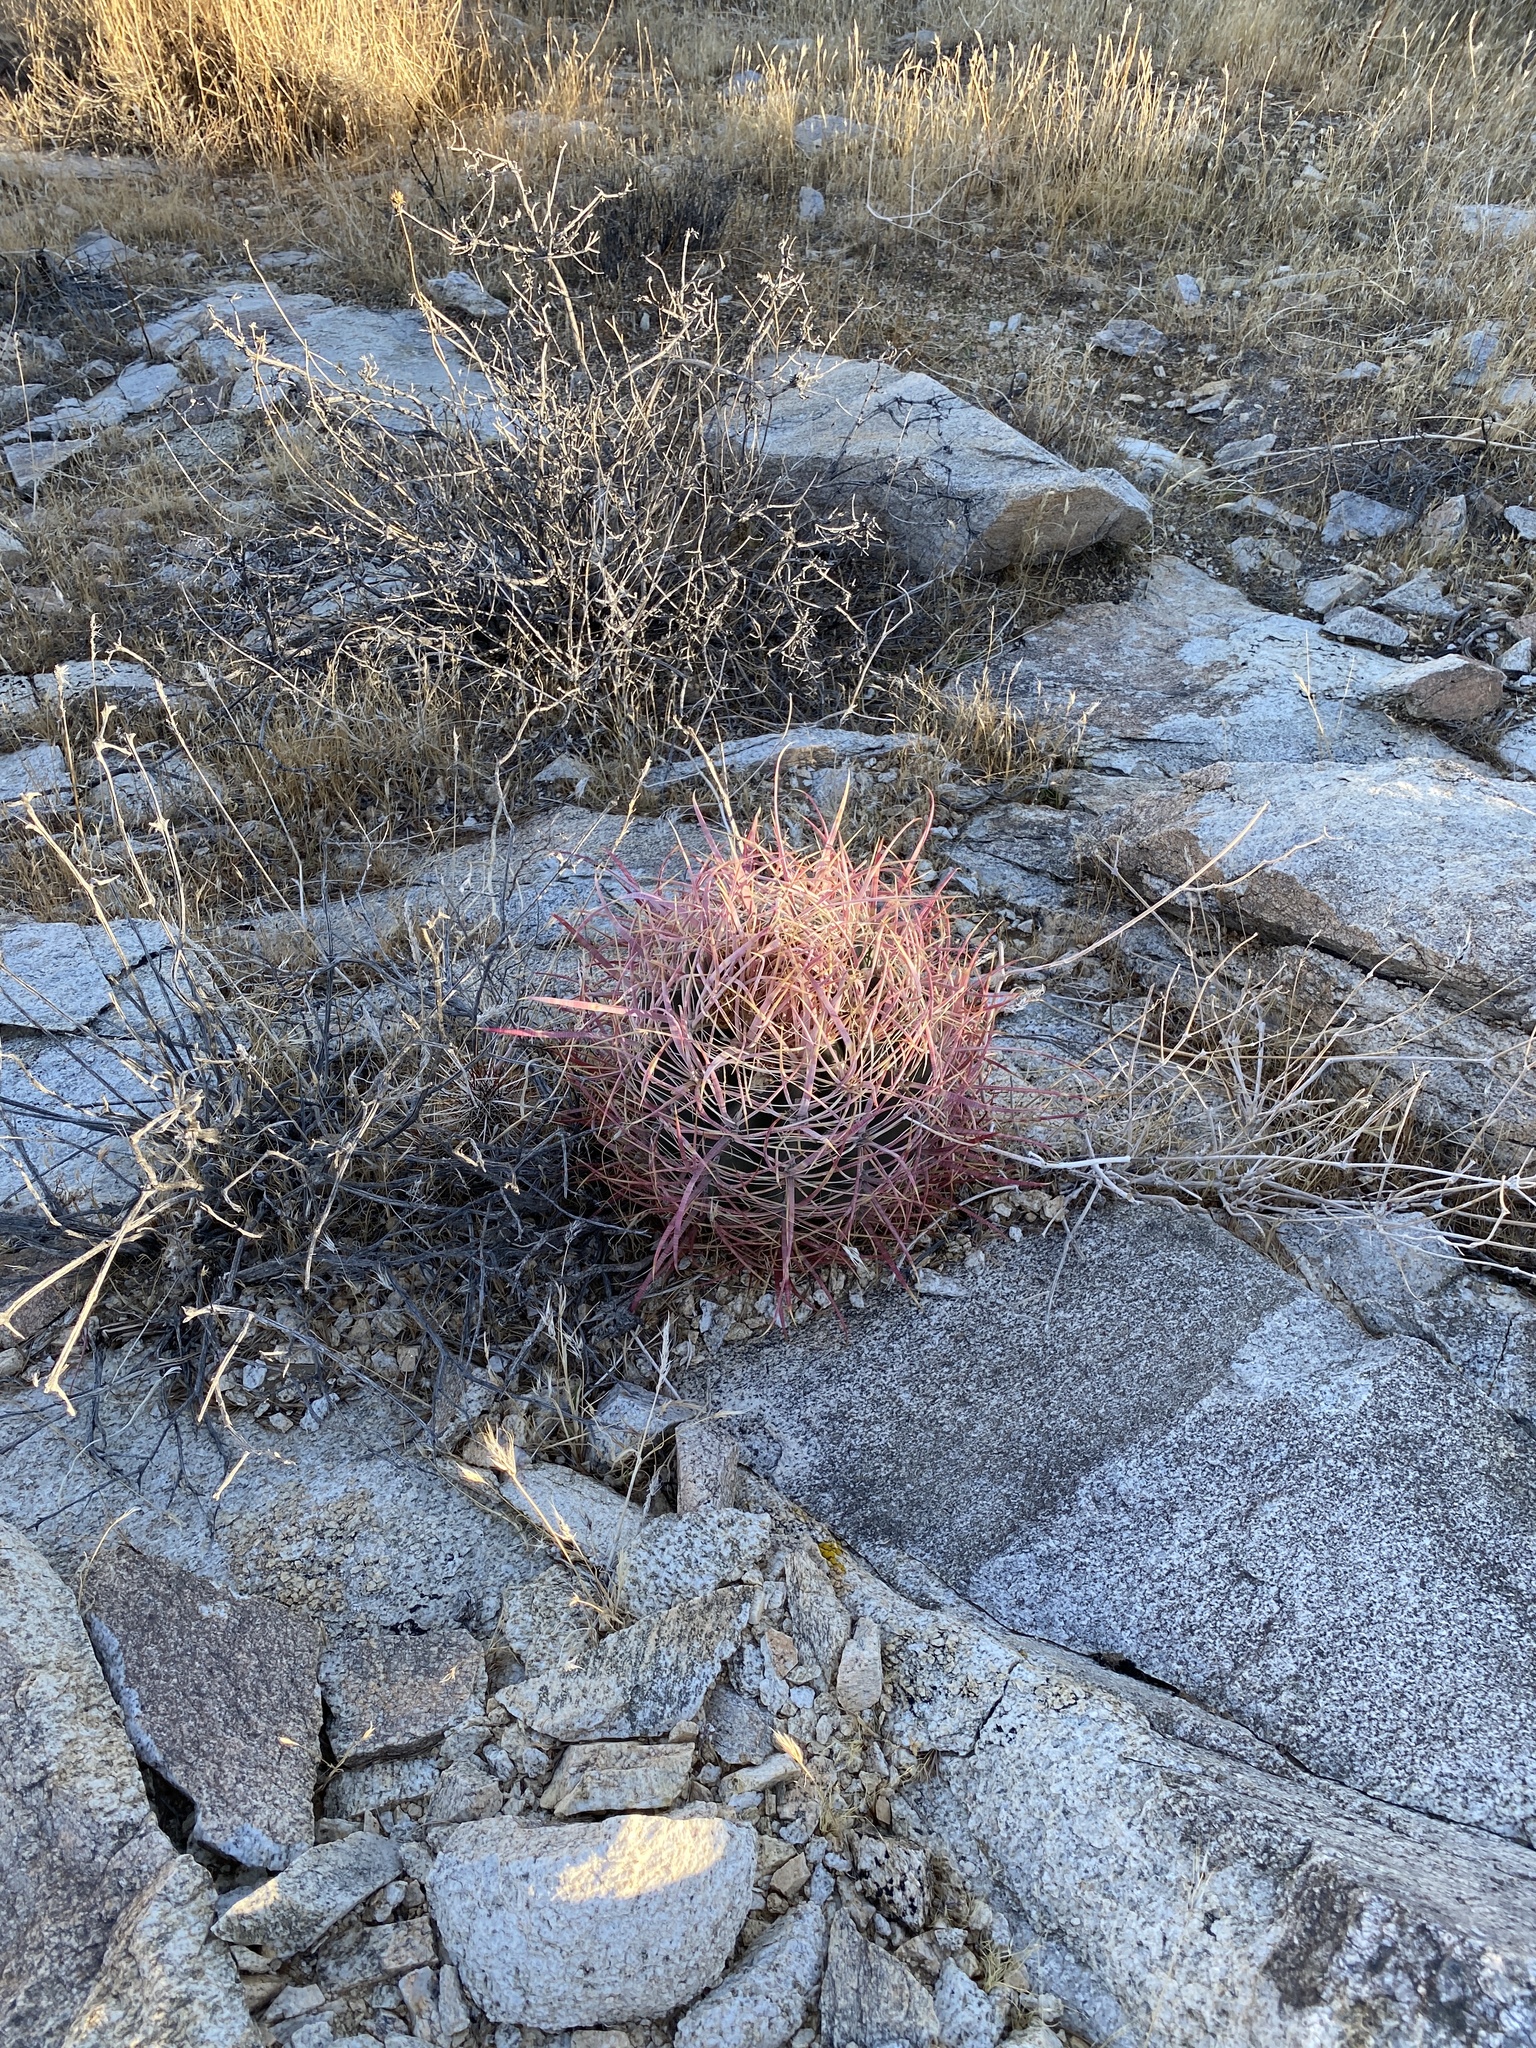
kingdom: Plantae
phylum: Tracheophyta
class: Magnoliopsida
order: Caryophyllales
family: Cactaceae
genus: Ferocactus
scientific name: Ferocactus cylindraceus
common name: California barrel cactus
